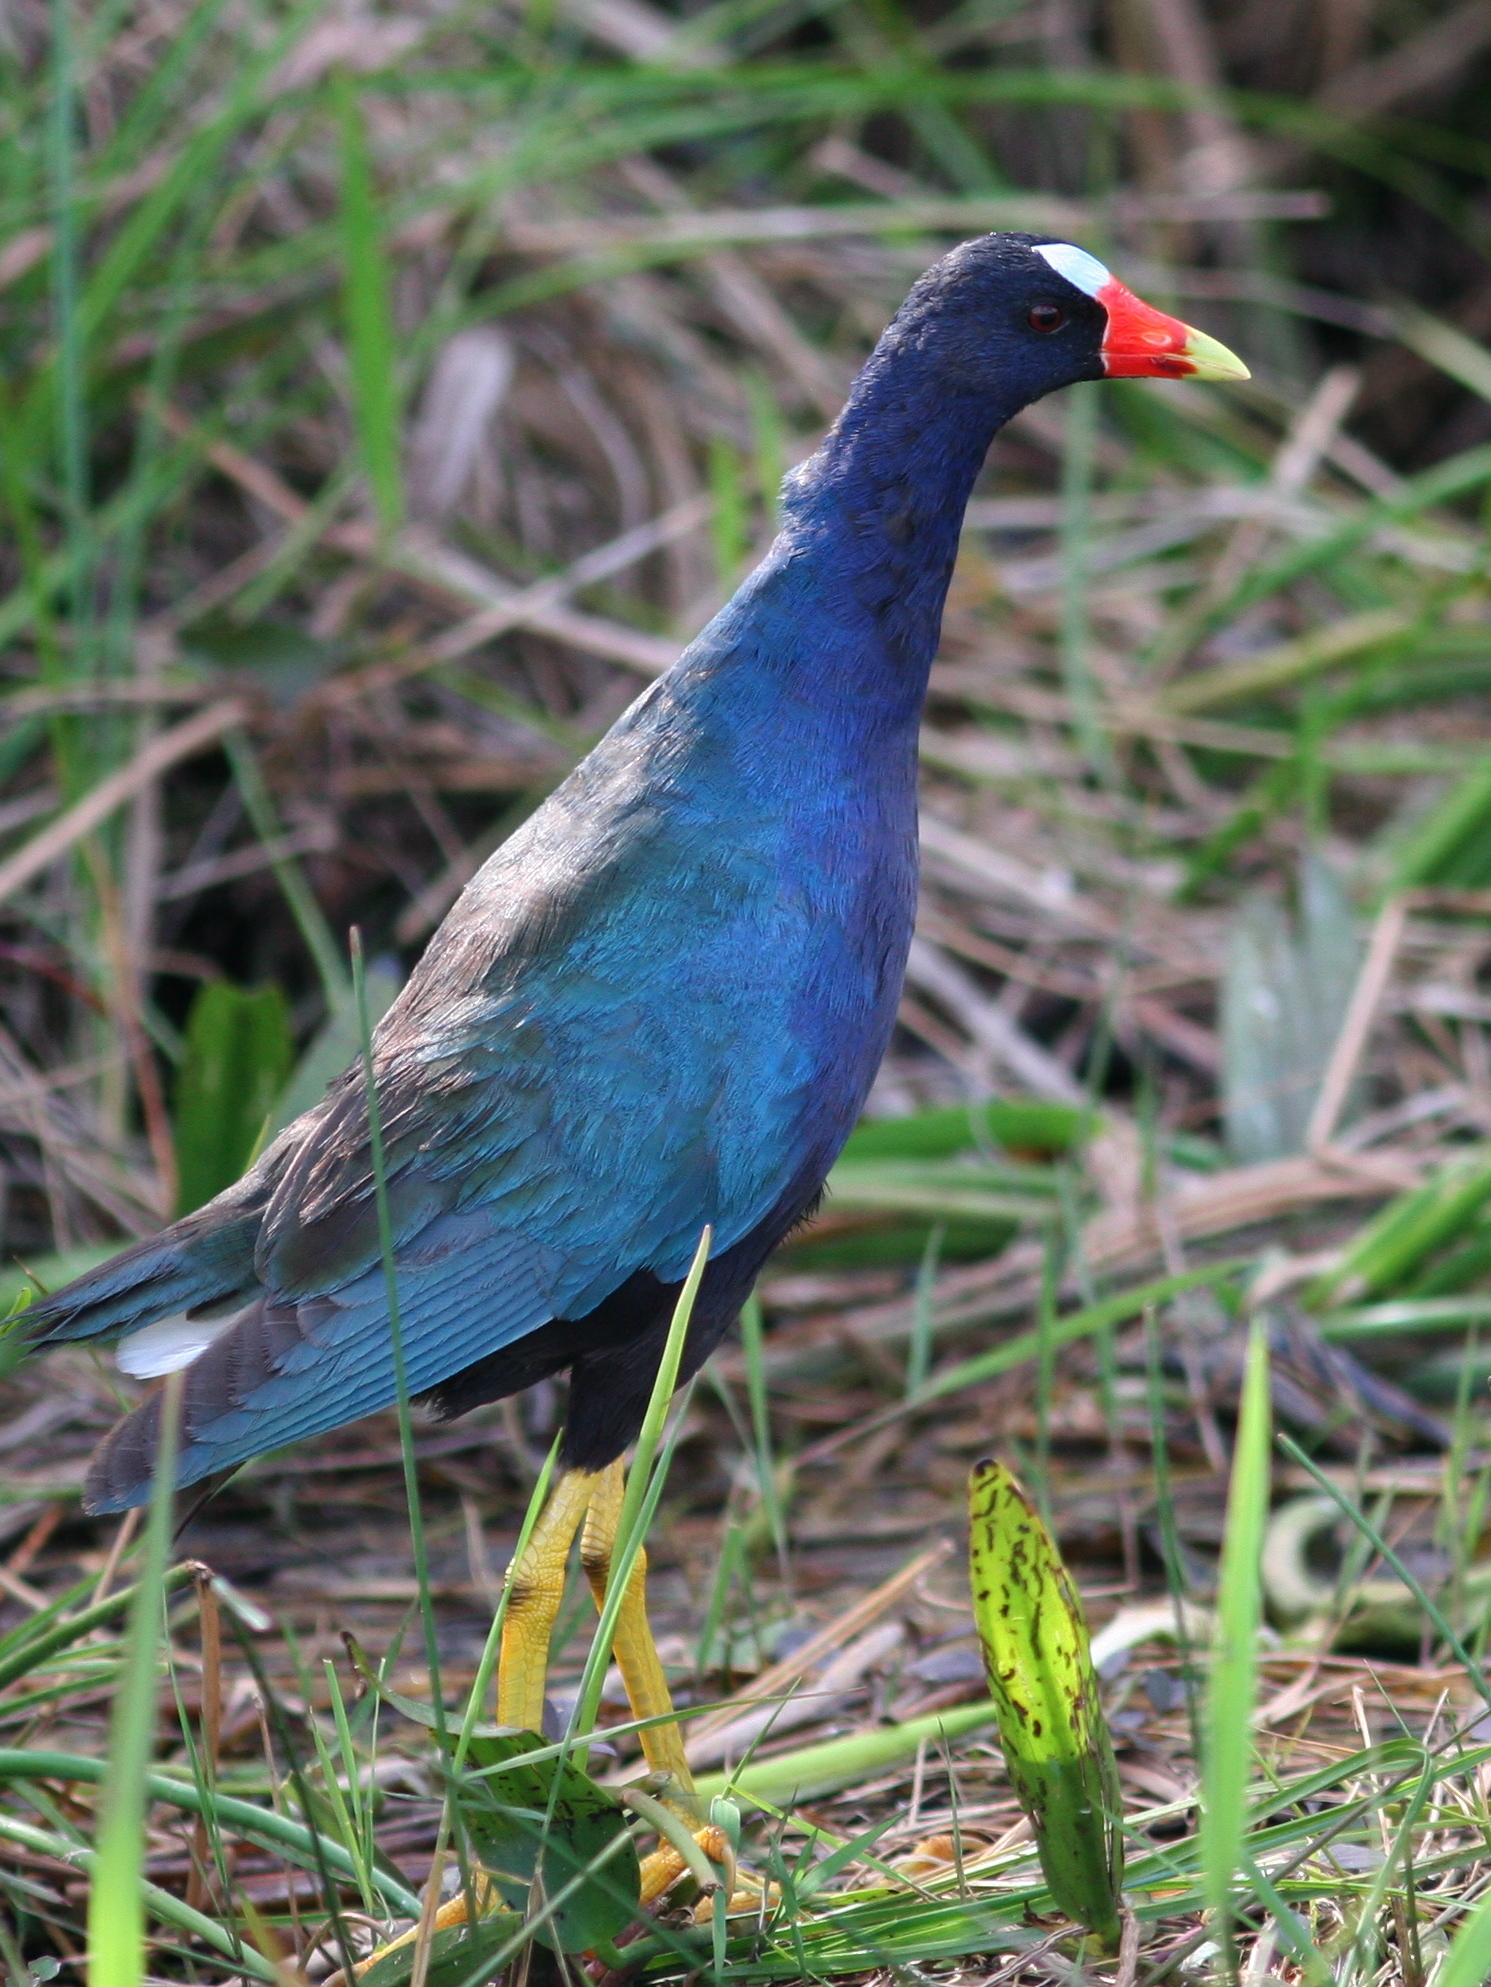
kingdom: Animalia
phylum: Chordata
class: Aves
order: Gruiformes
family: Rallidae
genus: Porphyrio
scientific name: Porphyrio martinica
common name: Purple gallinule
